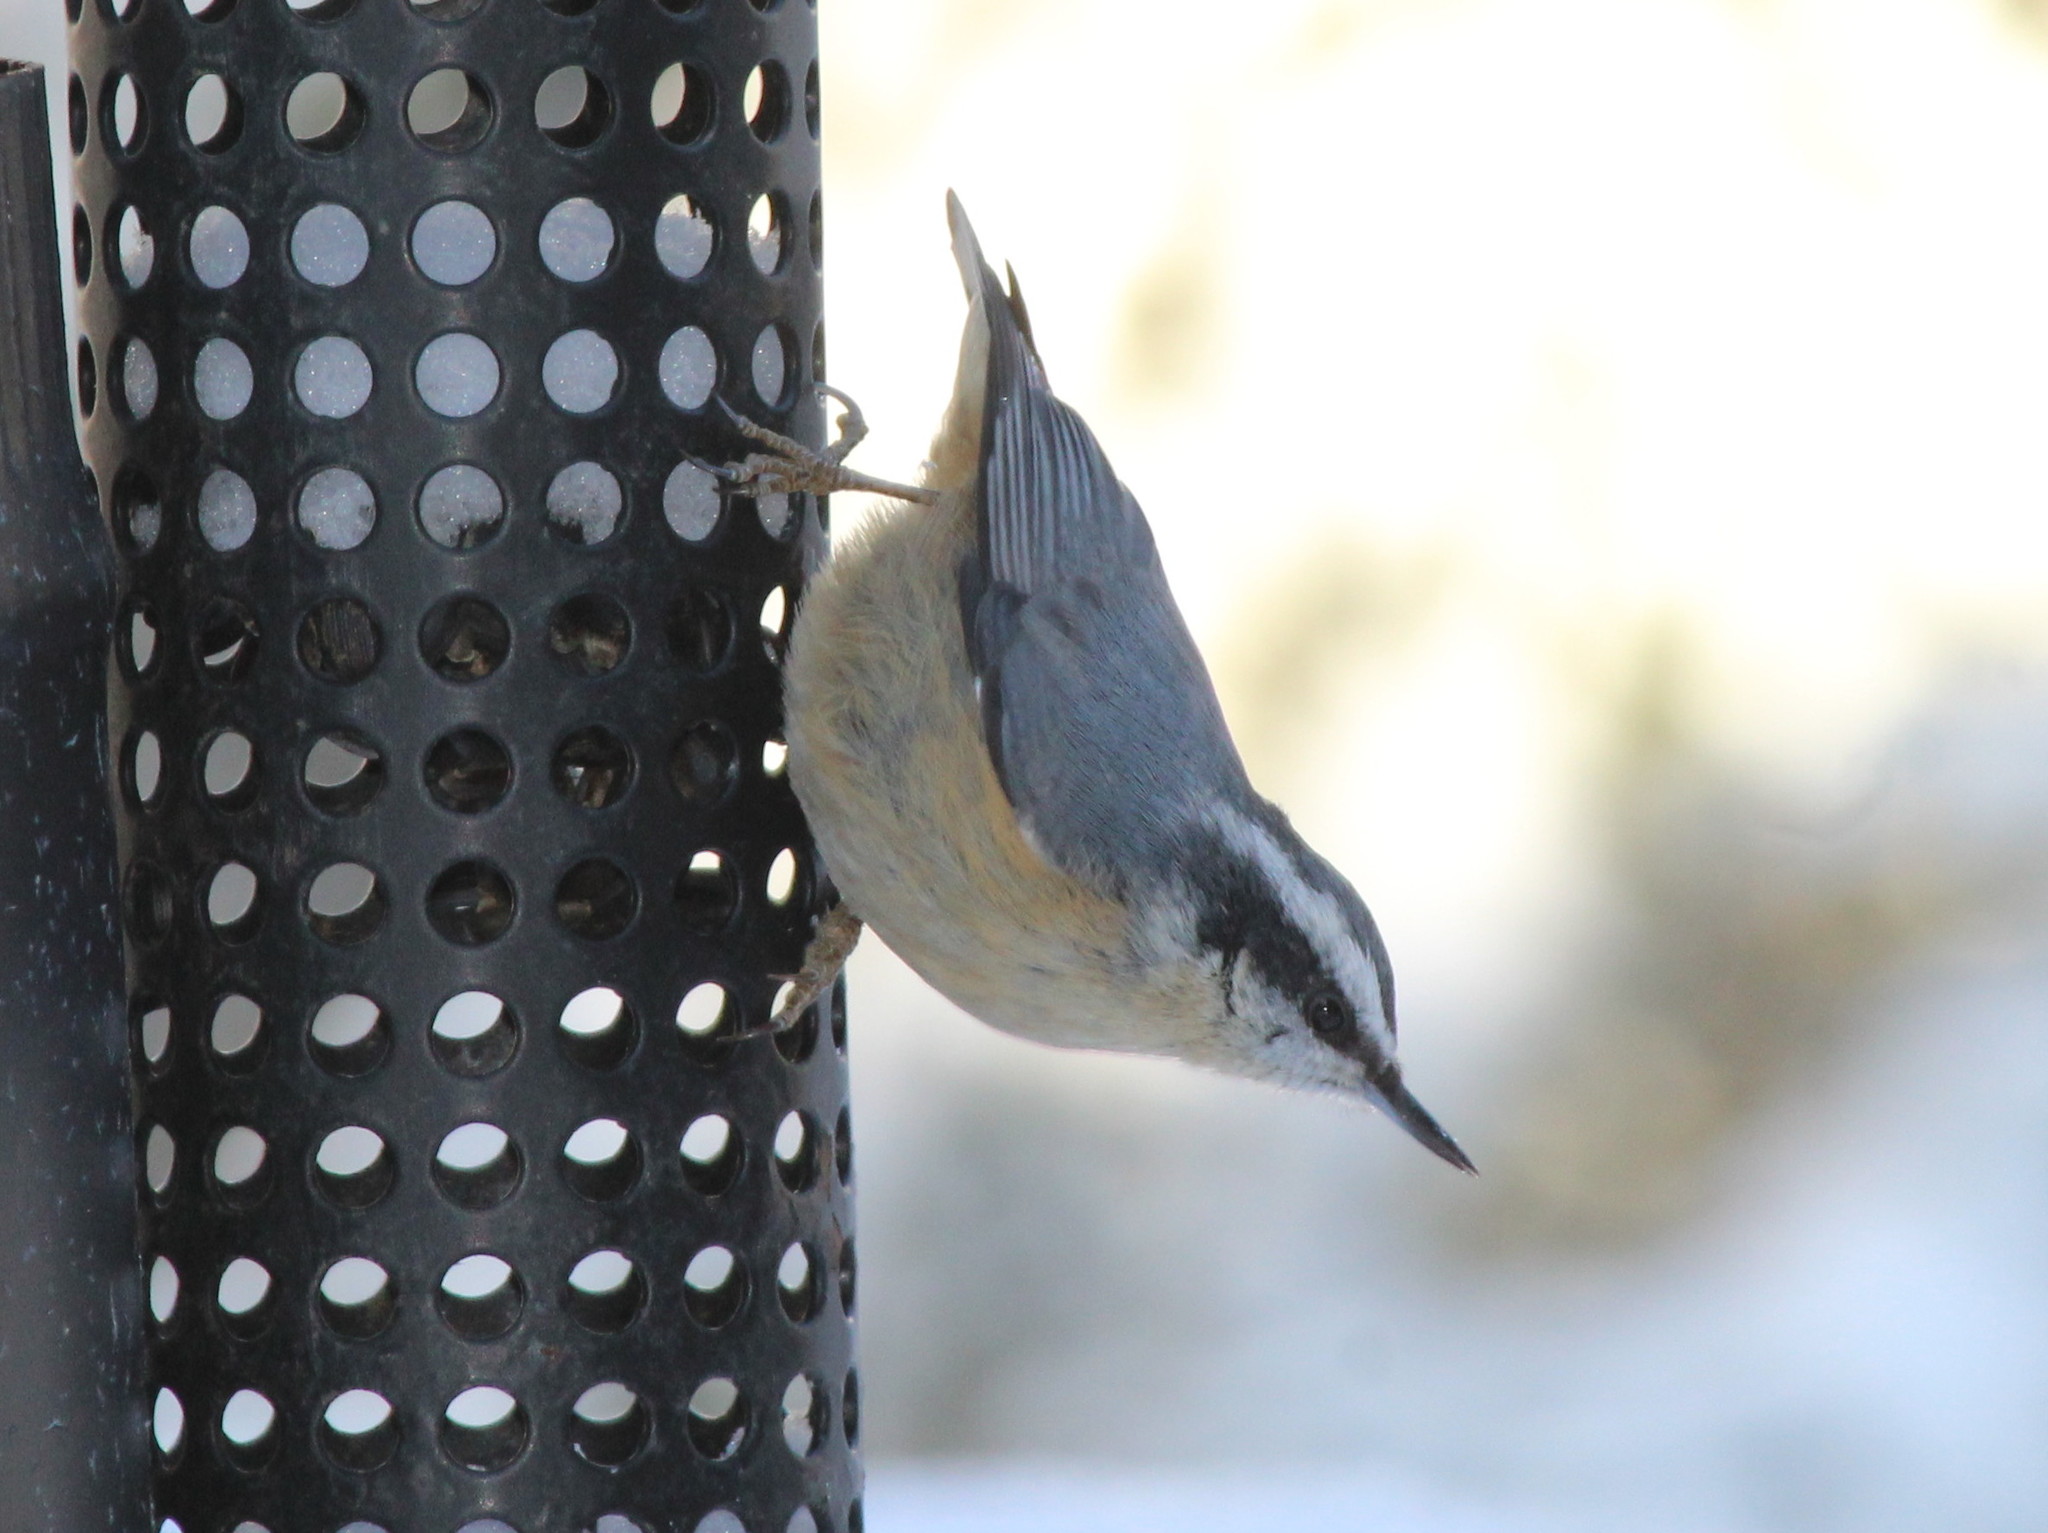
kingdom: Animalia
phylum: Chordata
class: Aves
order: Passeriformes
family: Sittidae
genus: Sitta
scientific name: Sitta canadensis
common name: Red-breasted nuthatch
